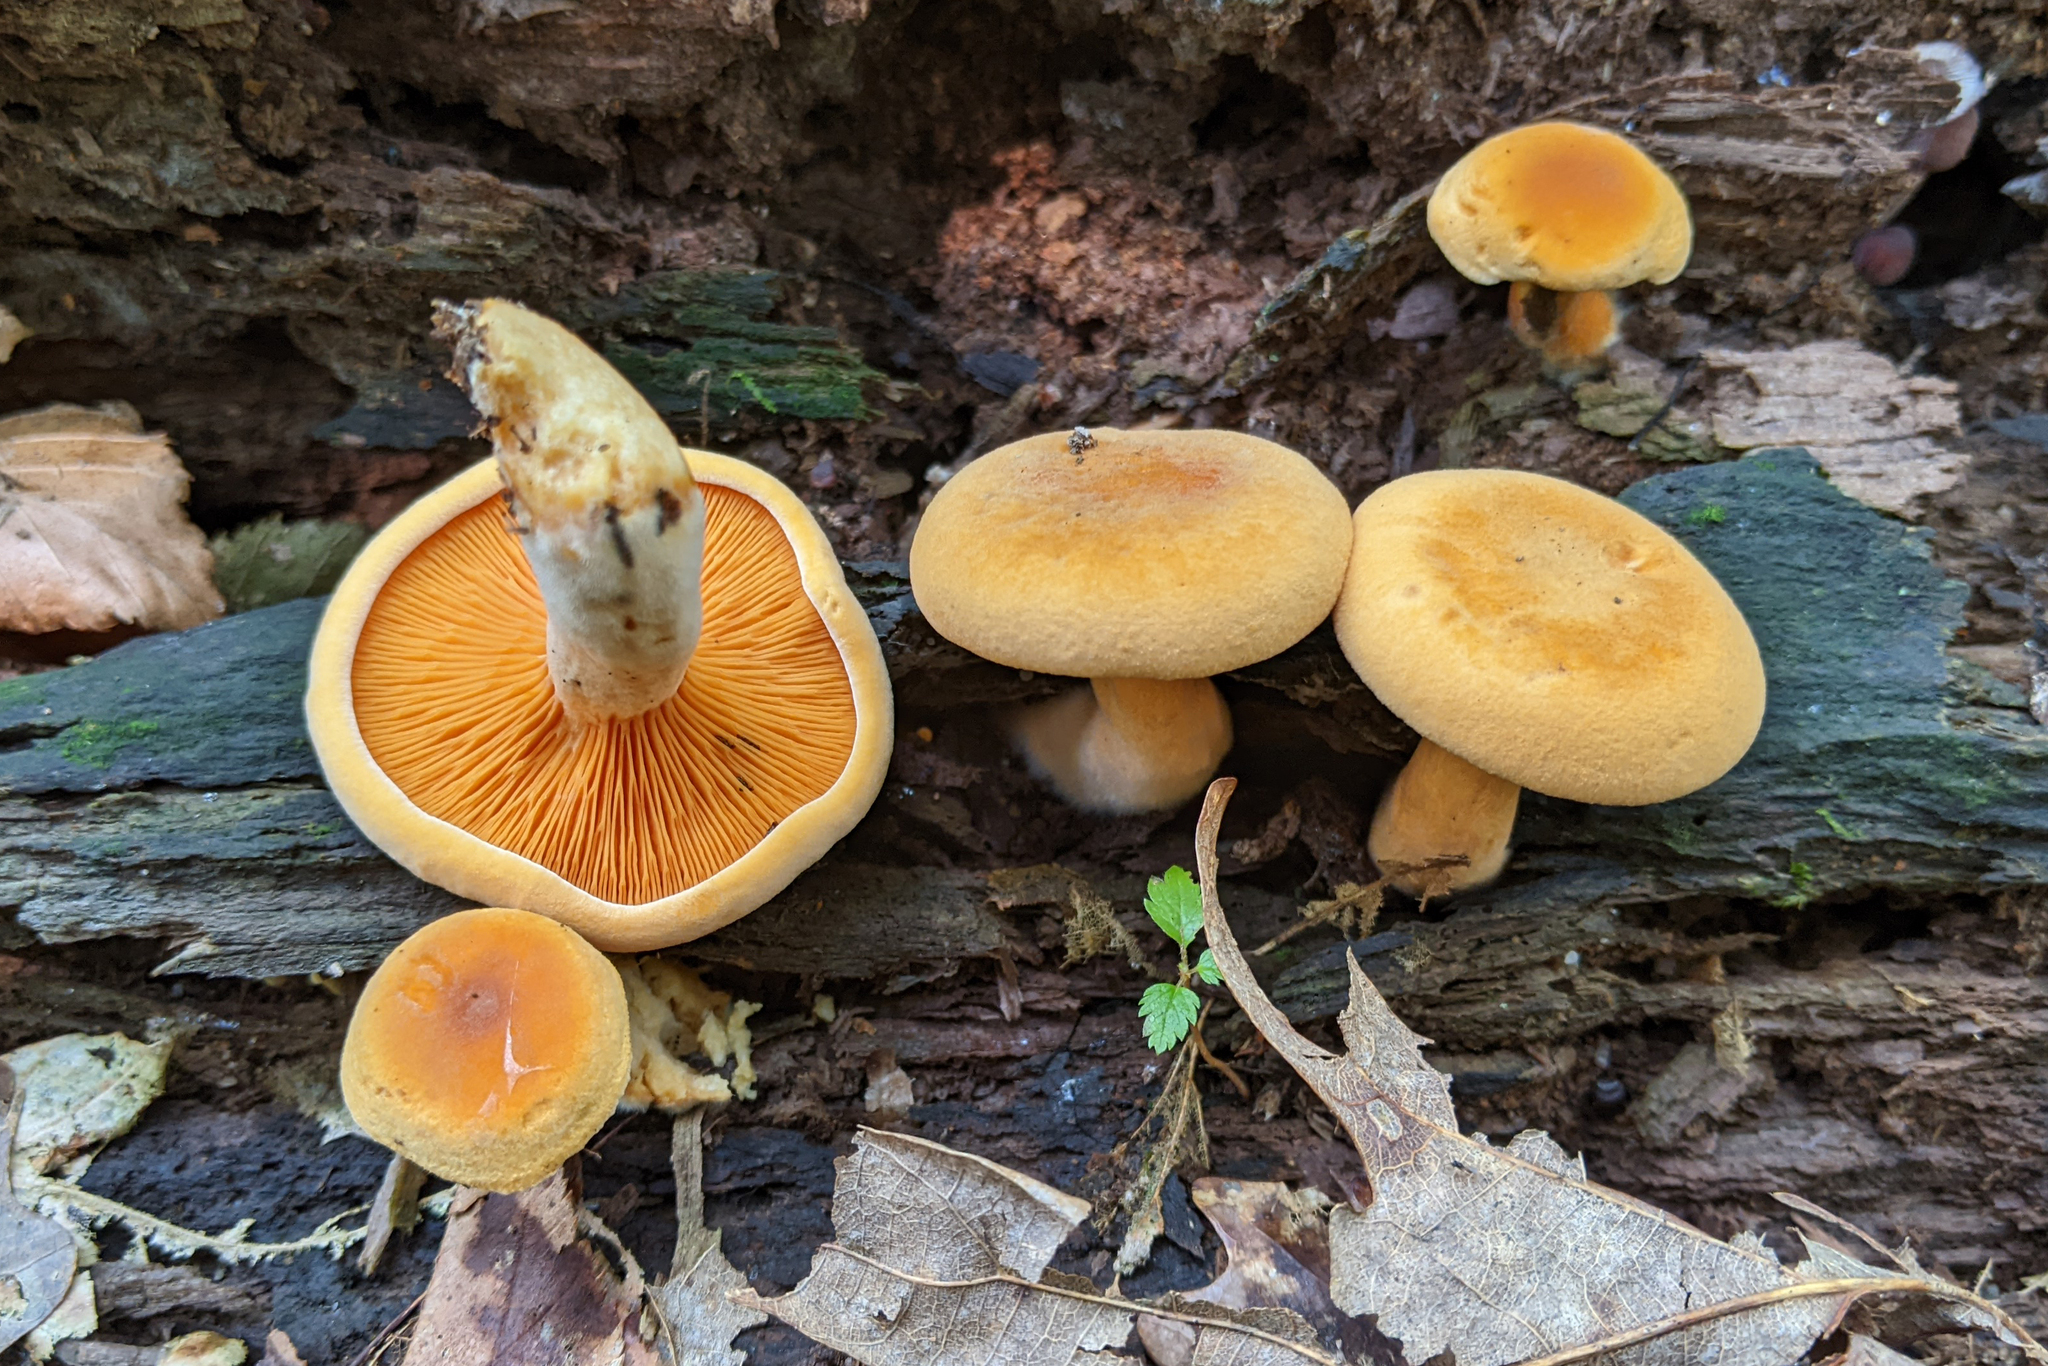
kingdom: Fungi
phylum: Basidiomycota
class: Agaricomycetes
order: Boletales
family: Hygrophoropsidaceae
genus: Hygrophoropsis
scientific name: Hygrophoropsis aurantiaca
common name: False chanterelle
